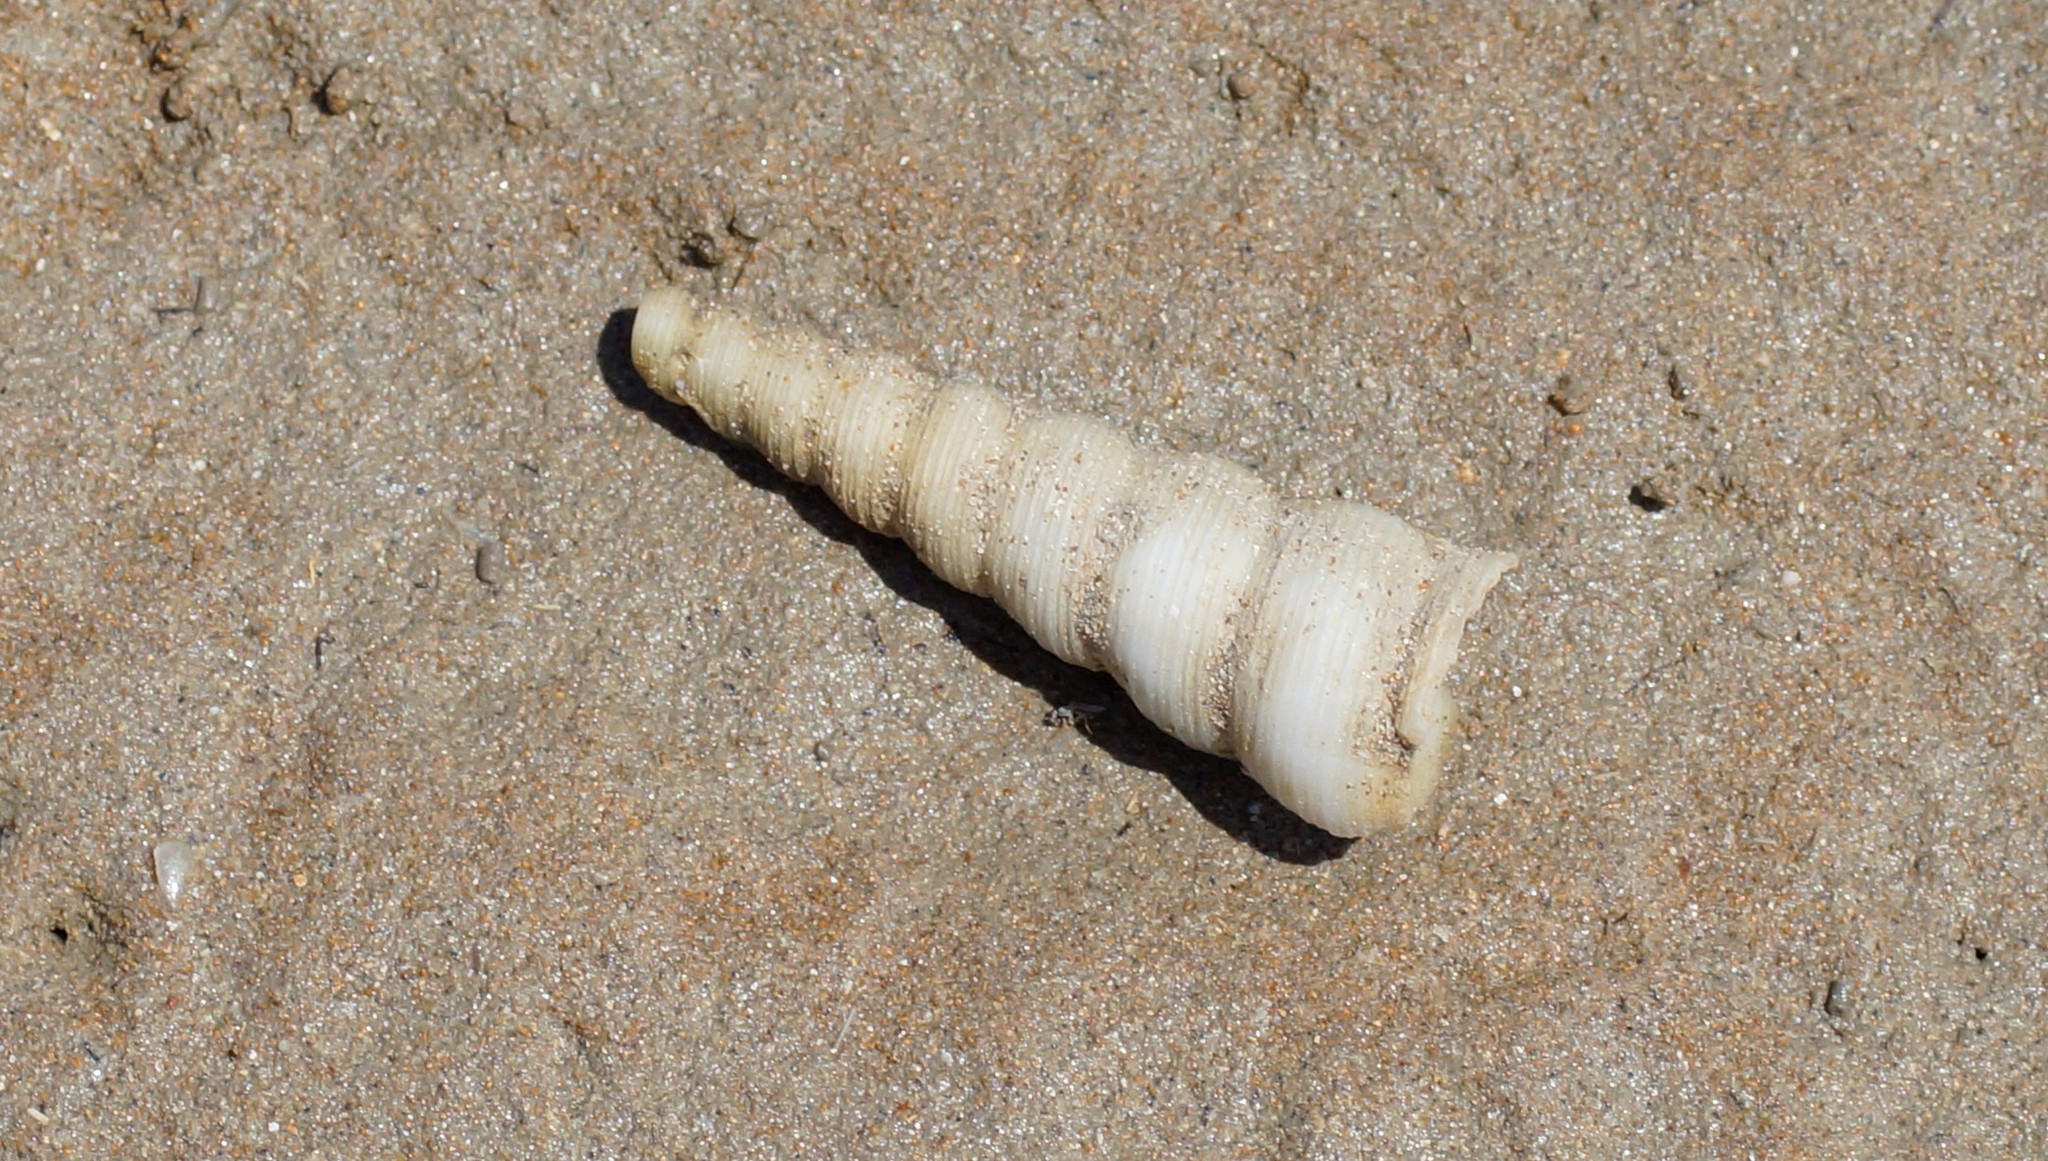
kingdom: Animalia
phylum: Mollusca
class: Gastropoda
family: Turritellidae
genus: Turritella
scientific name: Turritella terebra
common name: Auger screw shell
